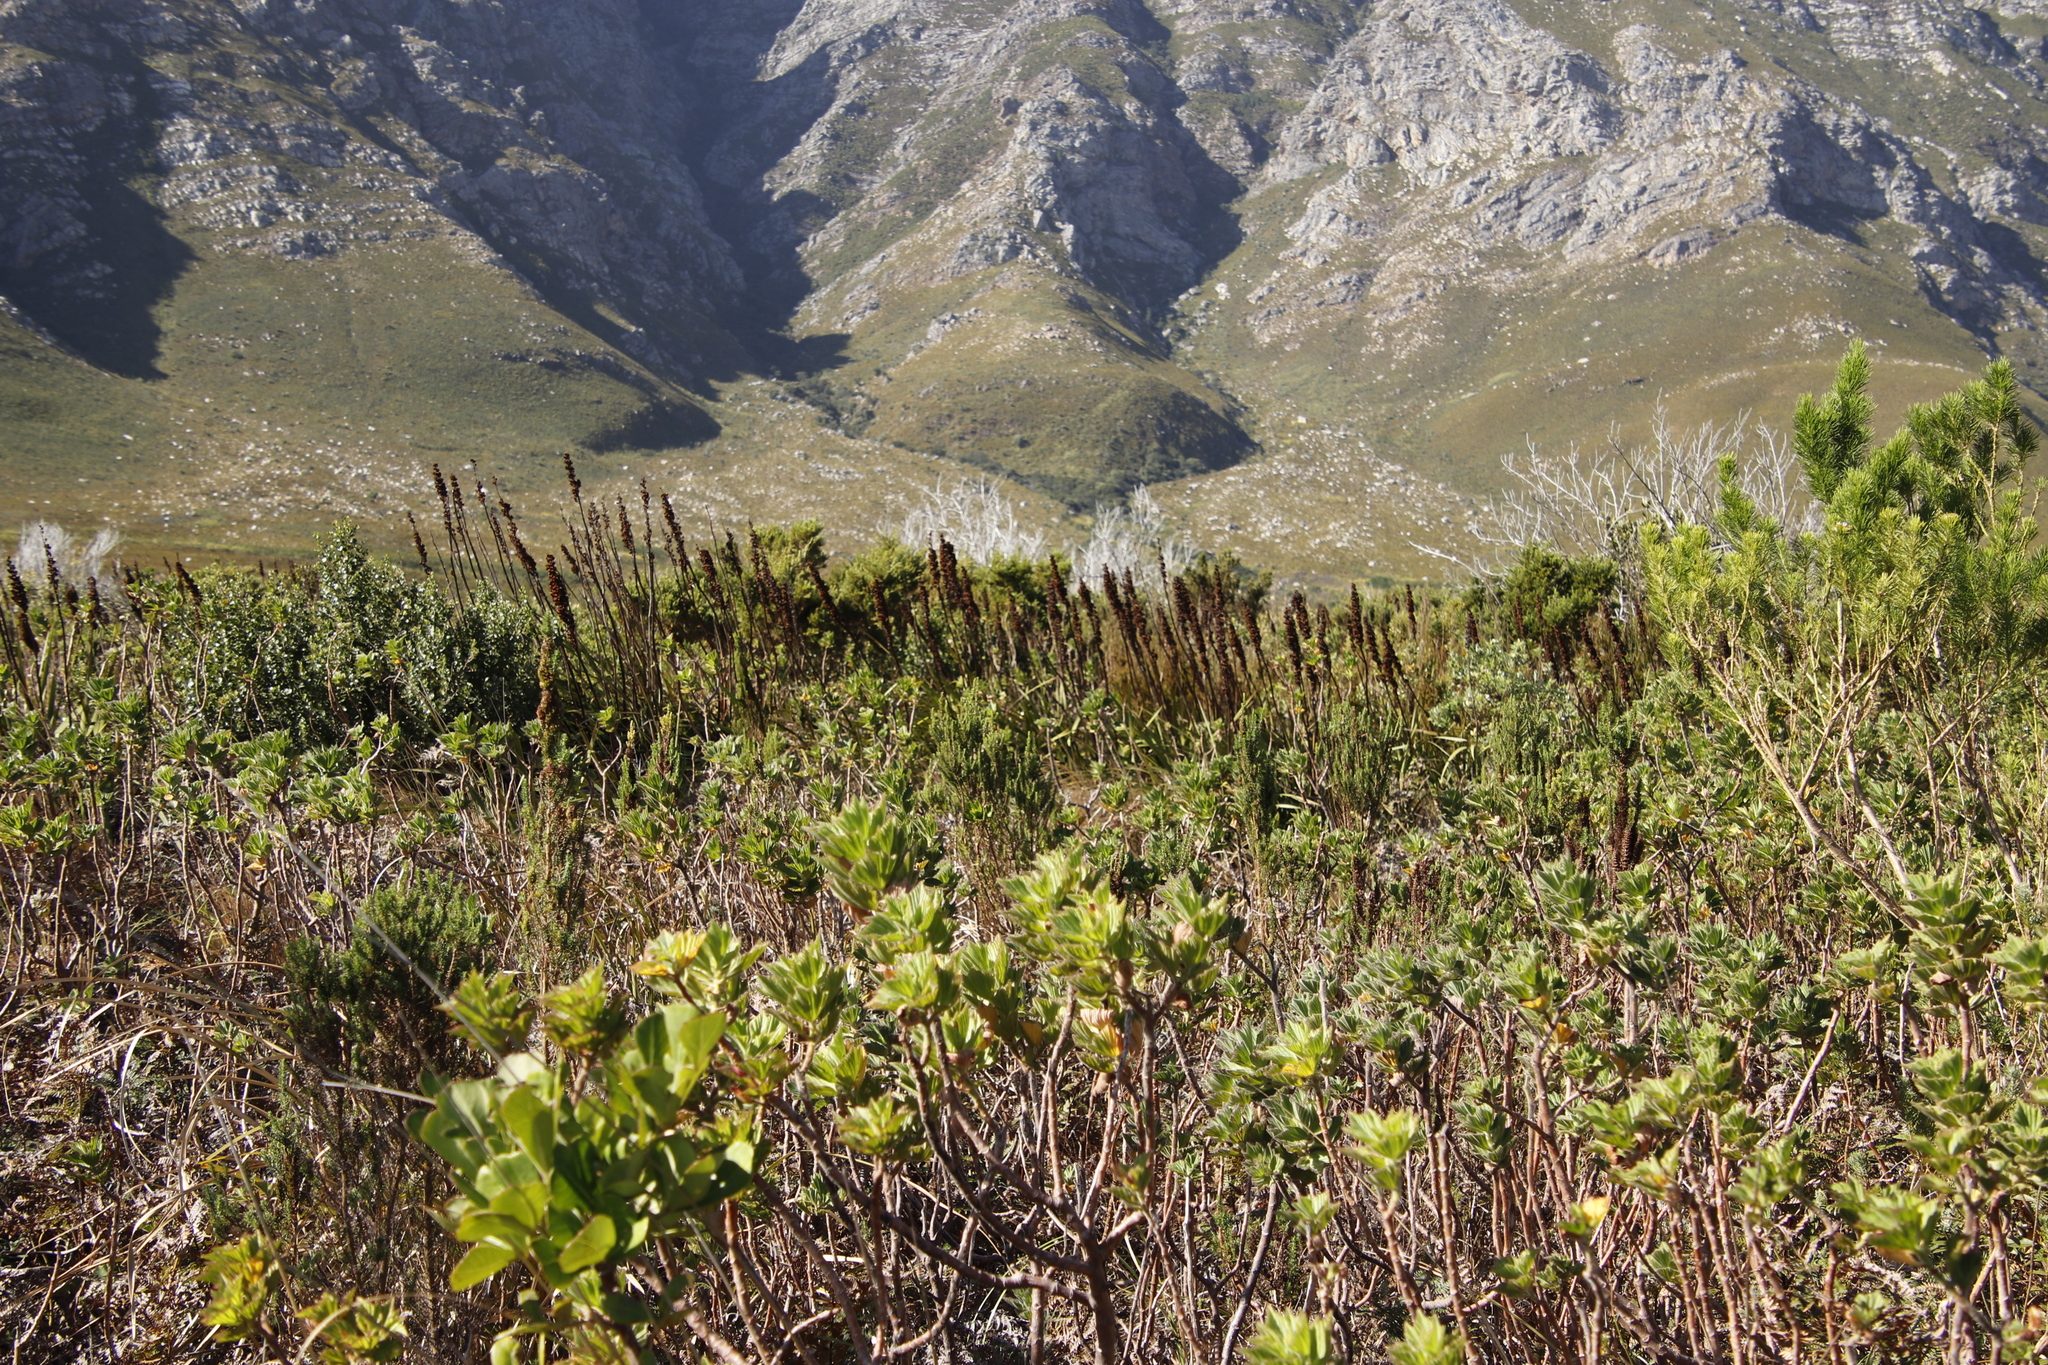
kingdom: Plantae
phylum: Tracheophyta
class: Liliopsida
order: Asparagales
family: Iridaceae
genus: Aristea
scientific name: Aristea capitata
